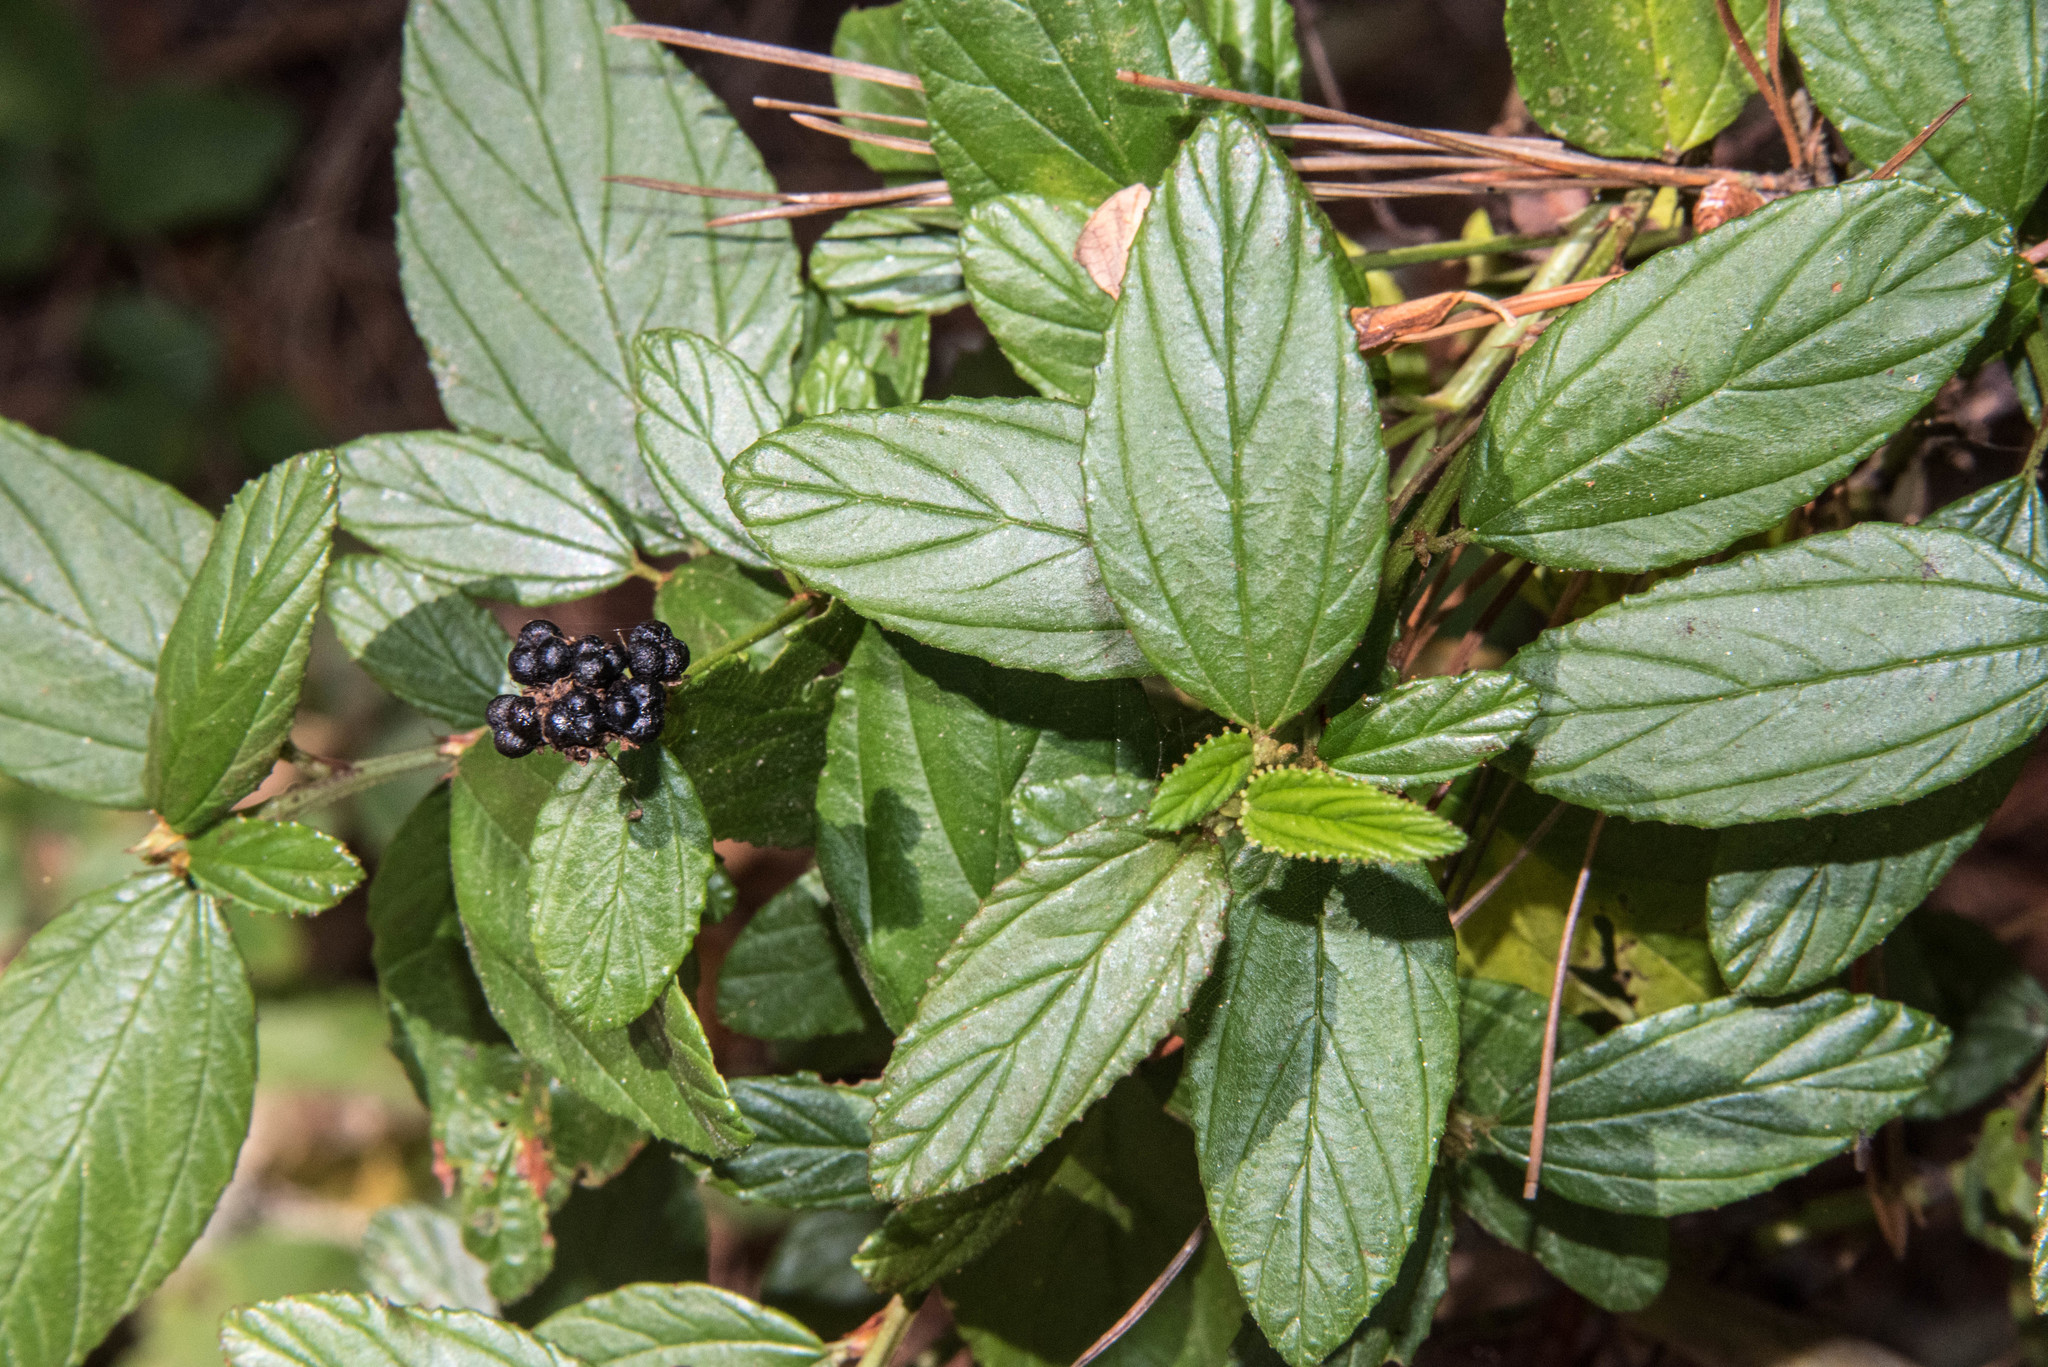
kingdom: Plantae
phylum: Tracheophyta
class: Magnoliopsida
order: Rosales
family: Rhamnaceae
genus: Ceanothus
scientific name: Ceanothus thyrsiflorus
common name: California-lilac
